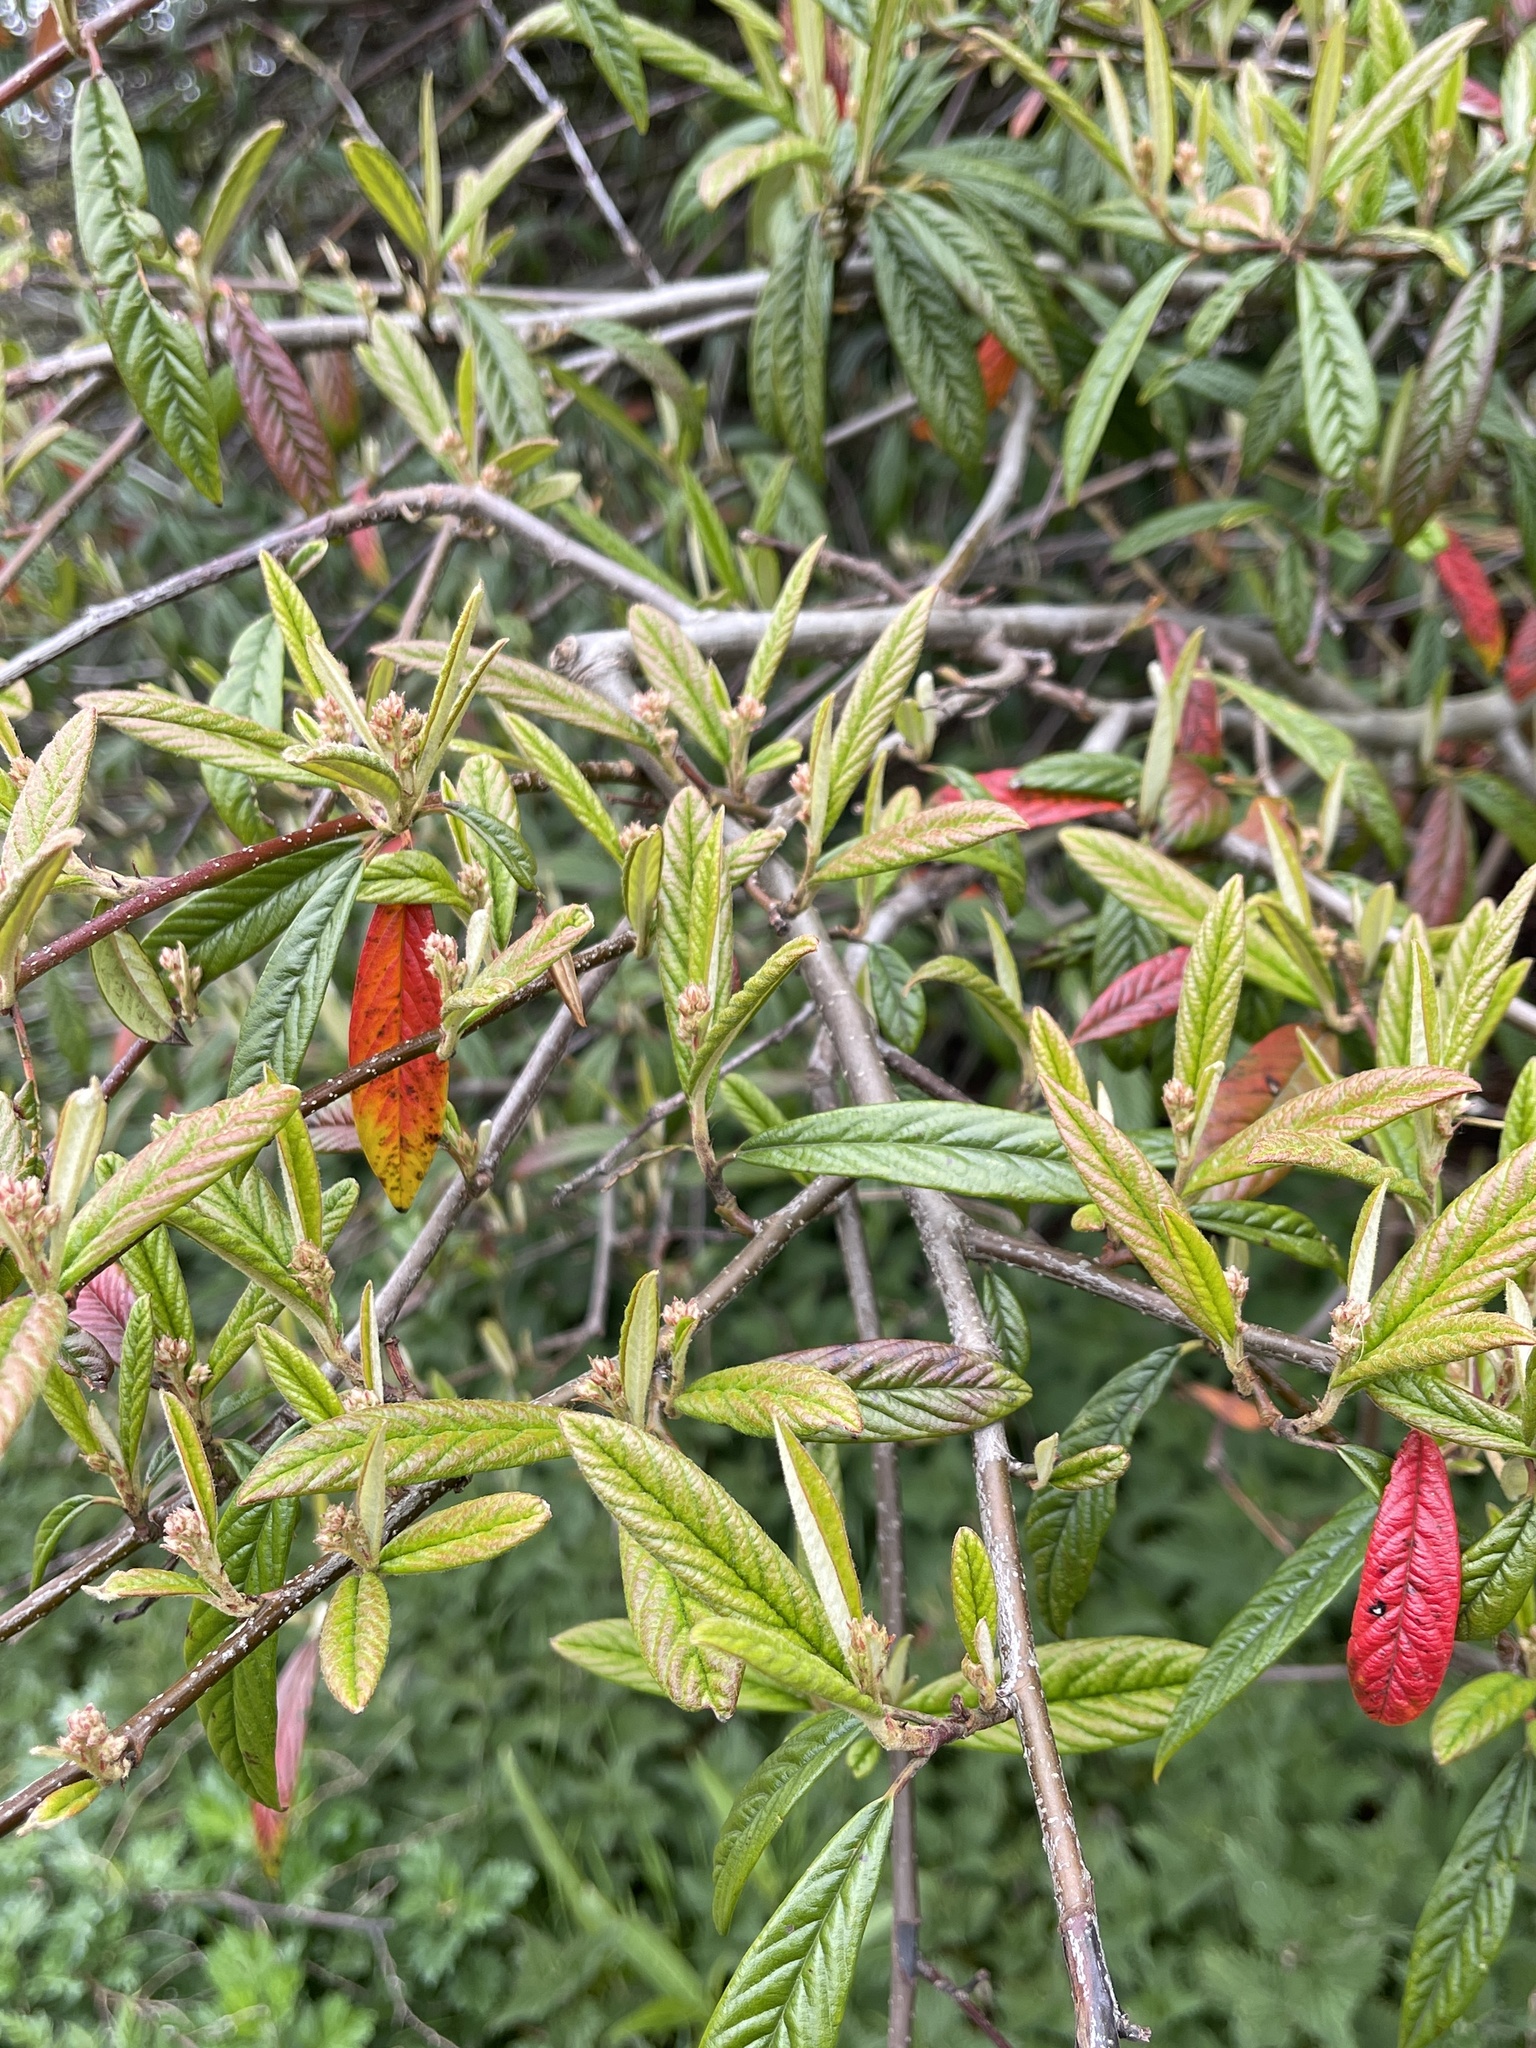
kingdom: Plantae
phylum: Tracheophyta
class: Magnoliopsida
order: Rosales
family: Rosaceae
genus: Cotoneaster
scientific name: Cotoneaster salicifolius
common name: Willow-leaved cotoneaster
